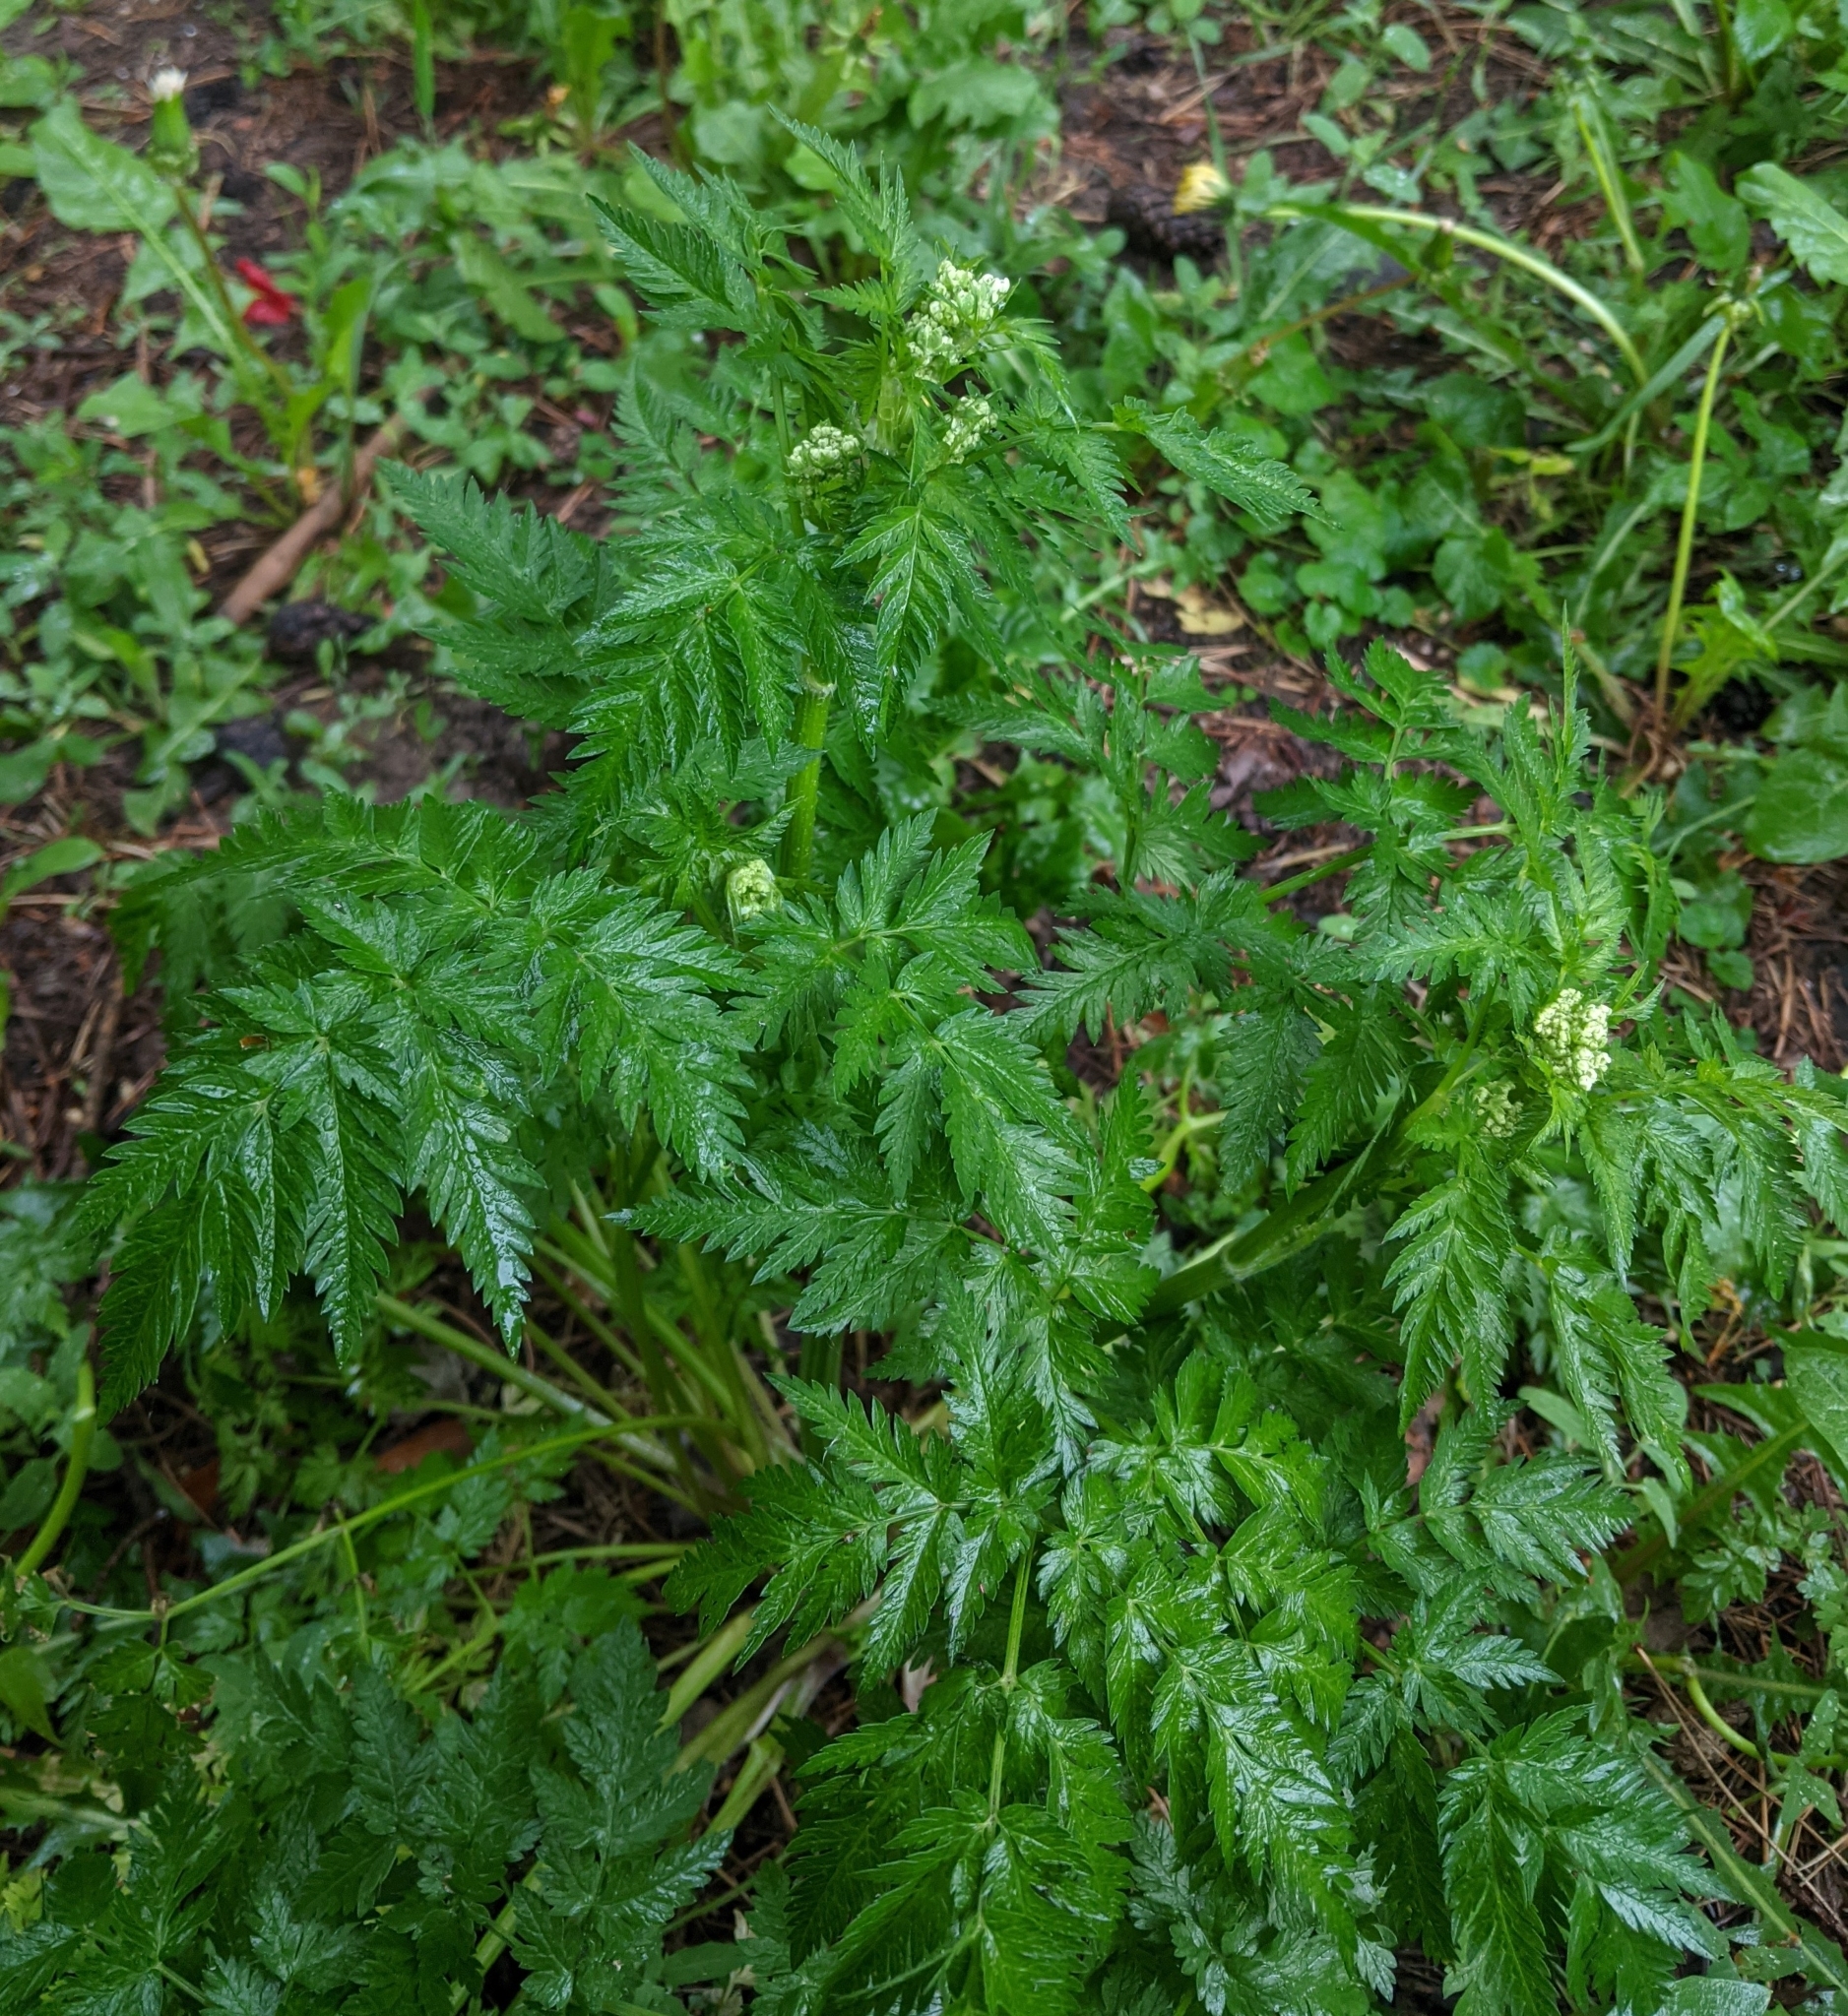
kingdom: Plantae
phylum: Tracheophyta
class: Magnoliopsida
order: Apiales
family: Apiaceae
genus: Anthriscus
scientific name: Anthriscus sylvestris
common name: Cow parsley
